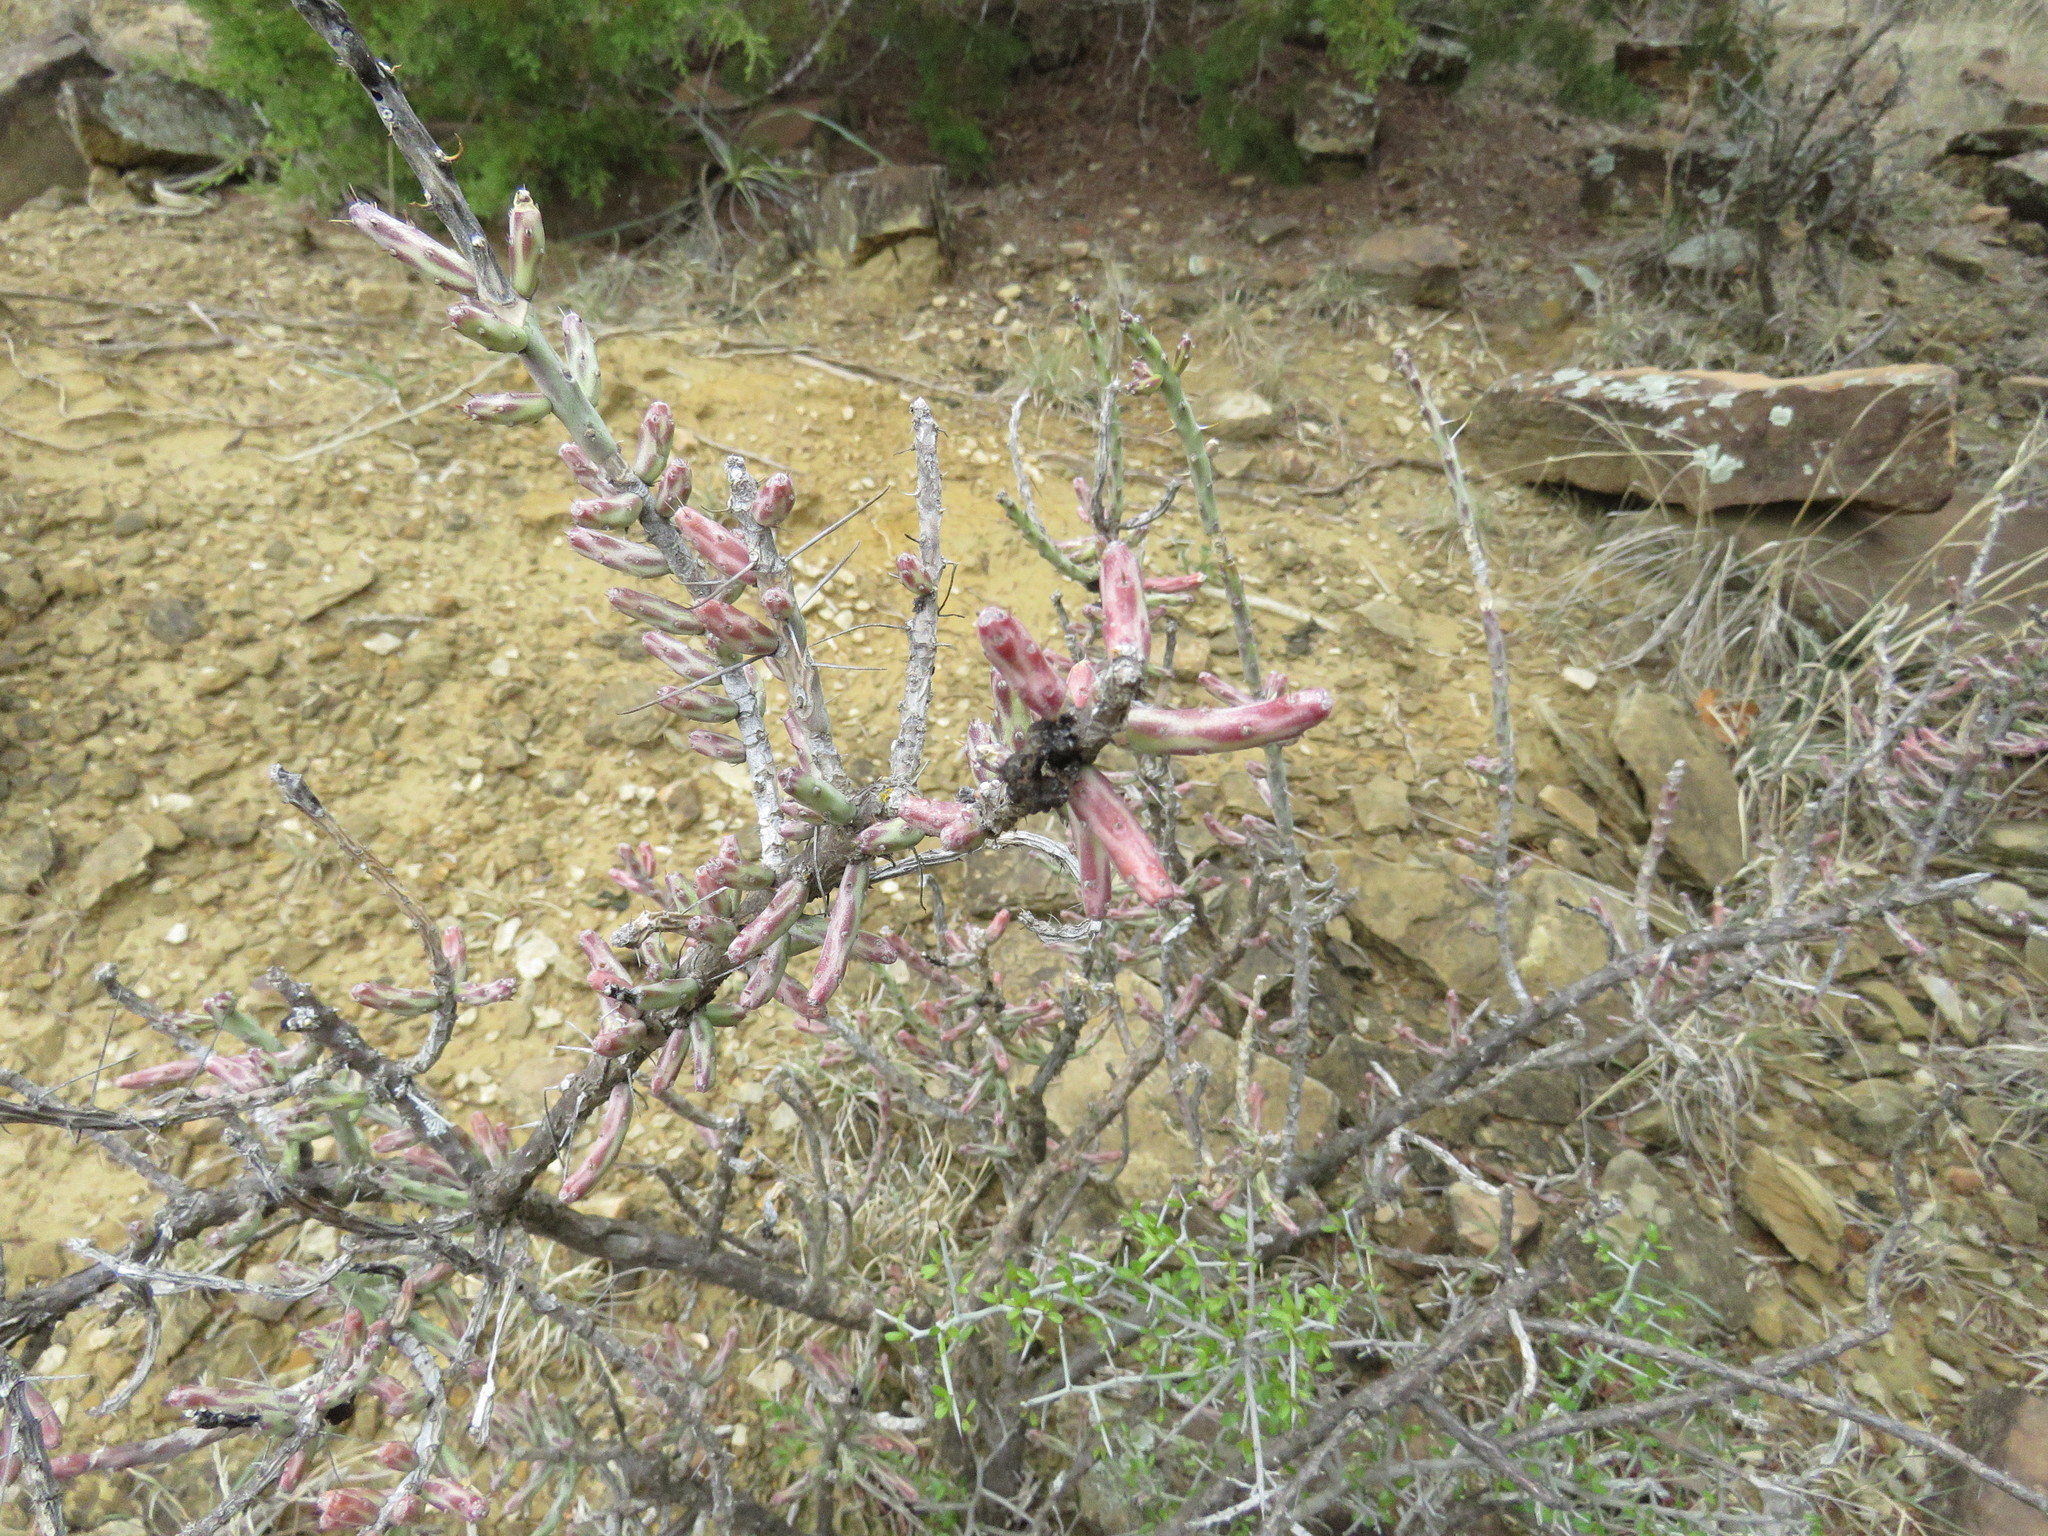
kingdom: Plantae
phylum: Tracheophyta
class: Magnoliopsida
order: Caryophyllales
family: Cactaceae
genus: Cylindropuntia
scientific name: Cylindropuntia leptocaulis
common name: Christmas cactus
